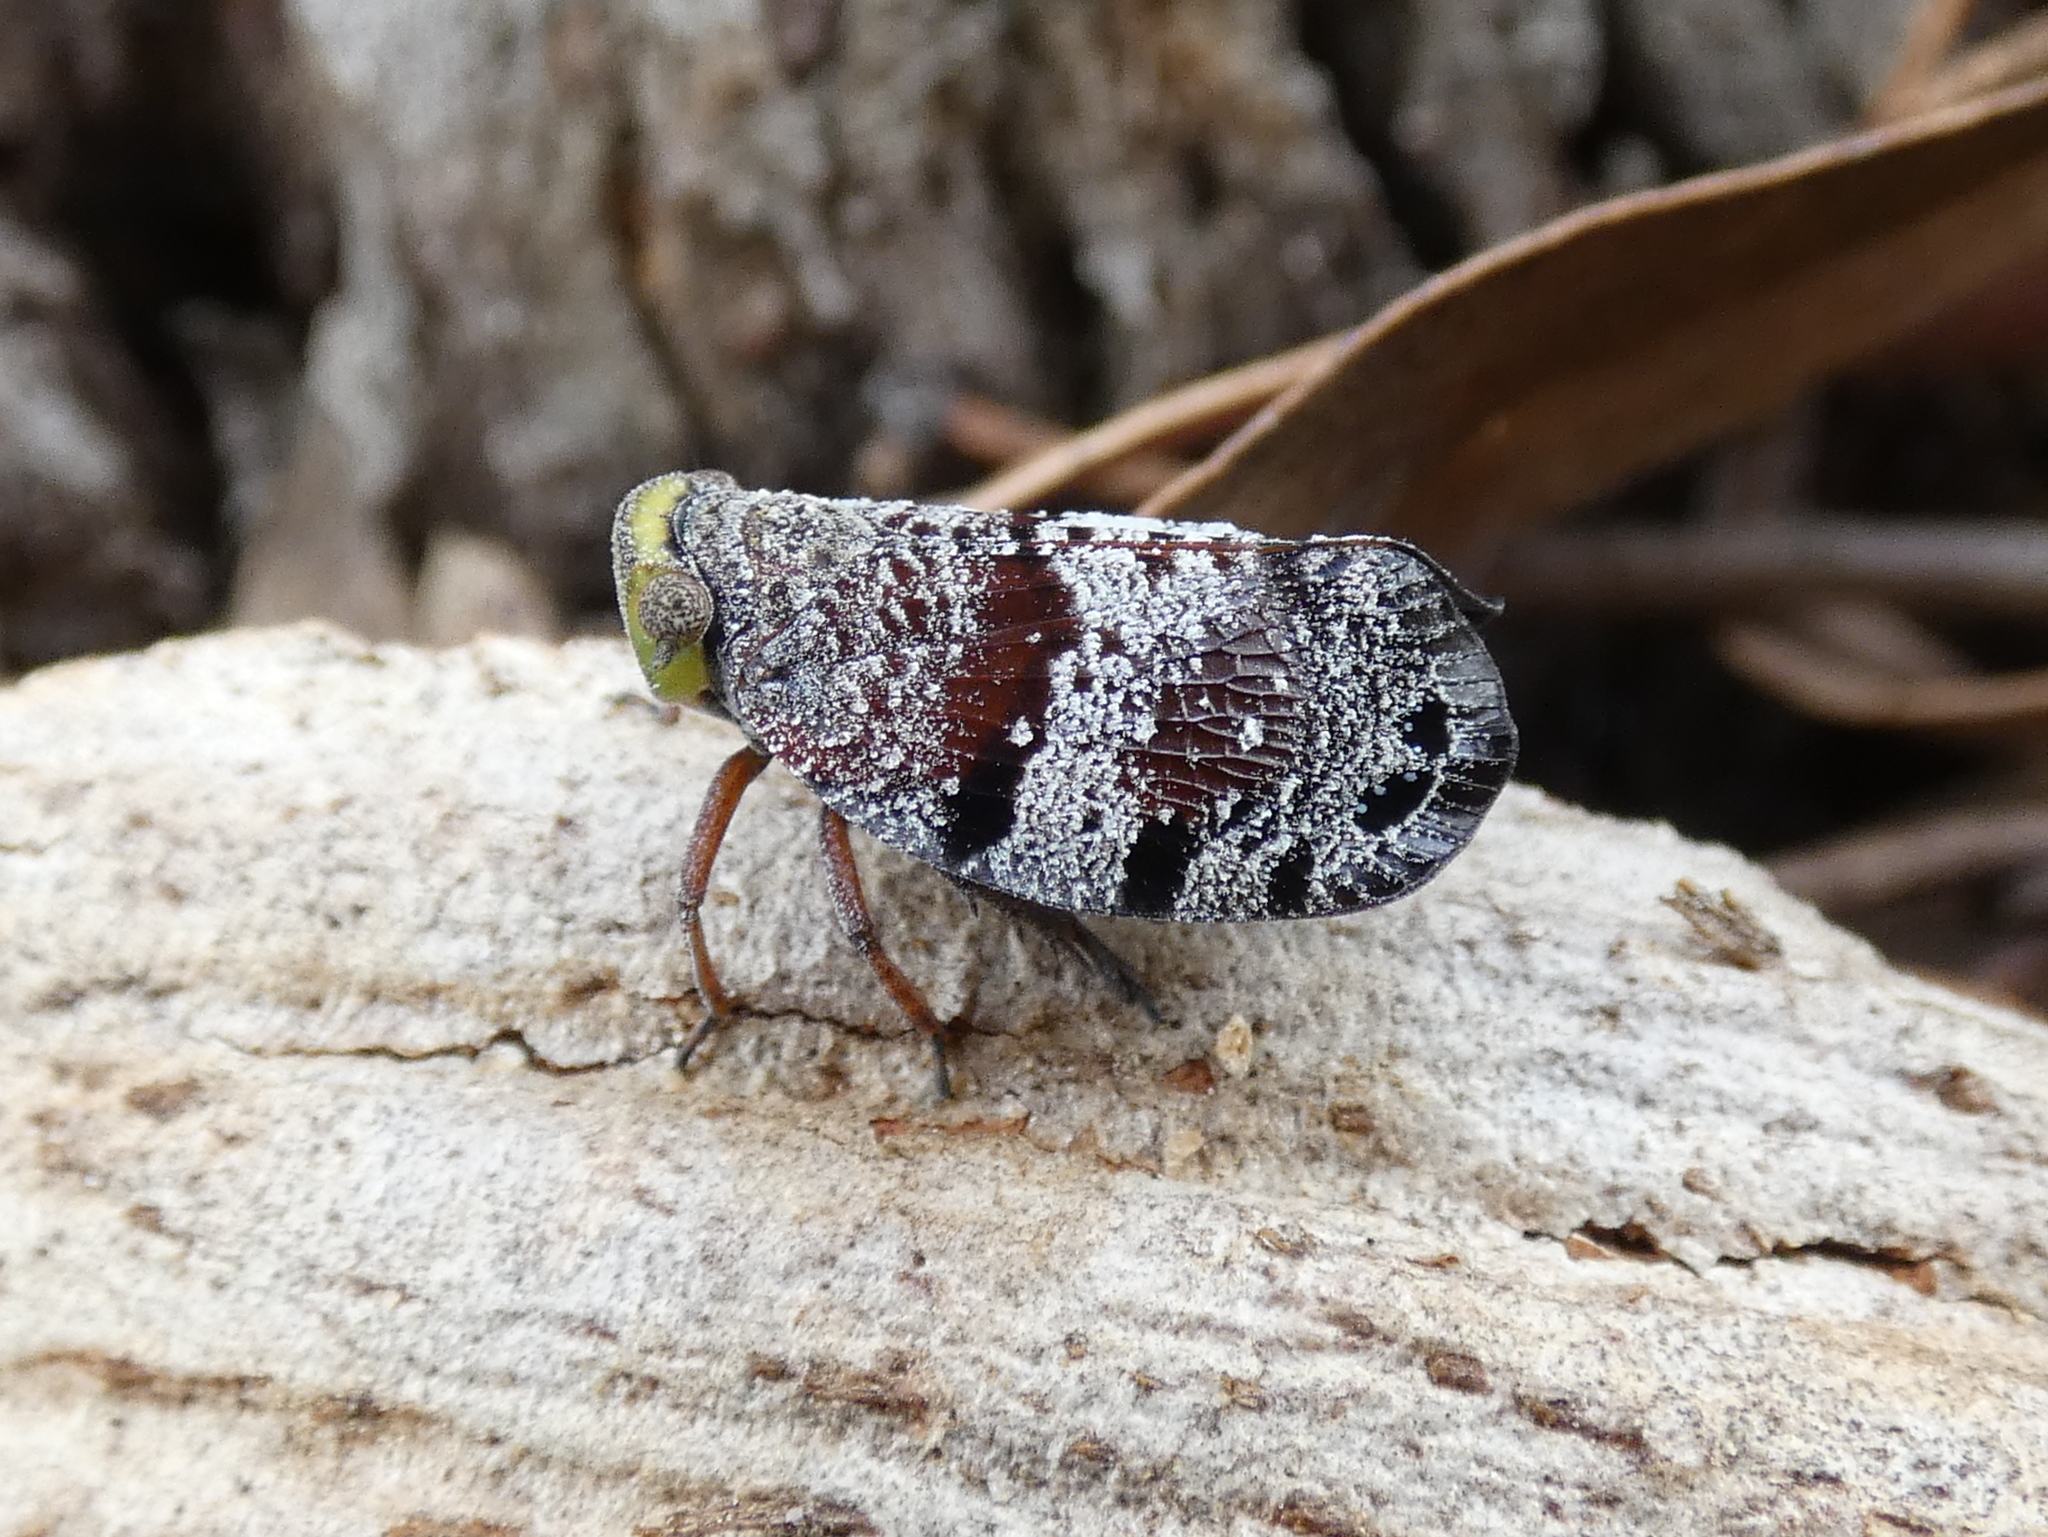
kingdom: Animalia
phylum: Arthropoda
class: Insecta
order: Hemiptera
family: Eurybrachidae
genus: Platybrachys
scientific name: Platybrachys decemmacula
